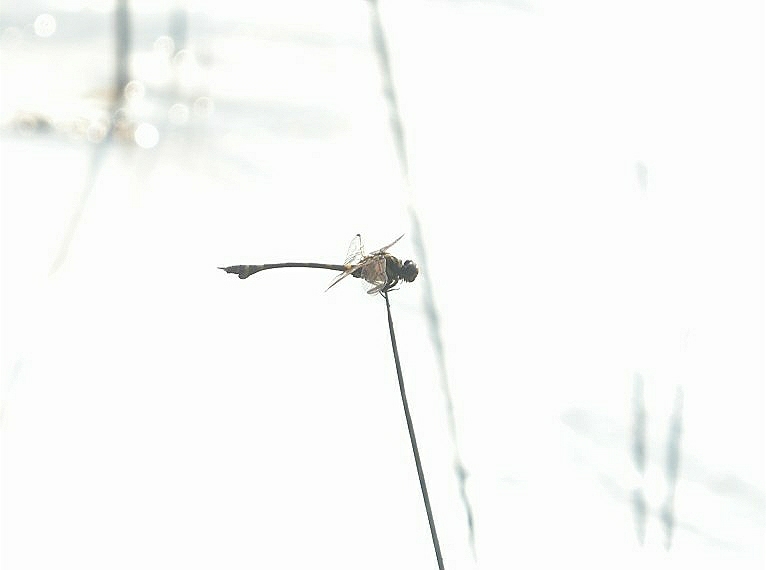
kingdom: Animalia
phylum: Arthropoda
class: Insecta
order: Odonata
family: Gomphidae
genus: Ictinogomphus
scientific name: Ictinogomphus rapax
